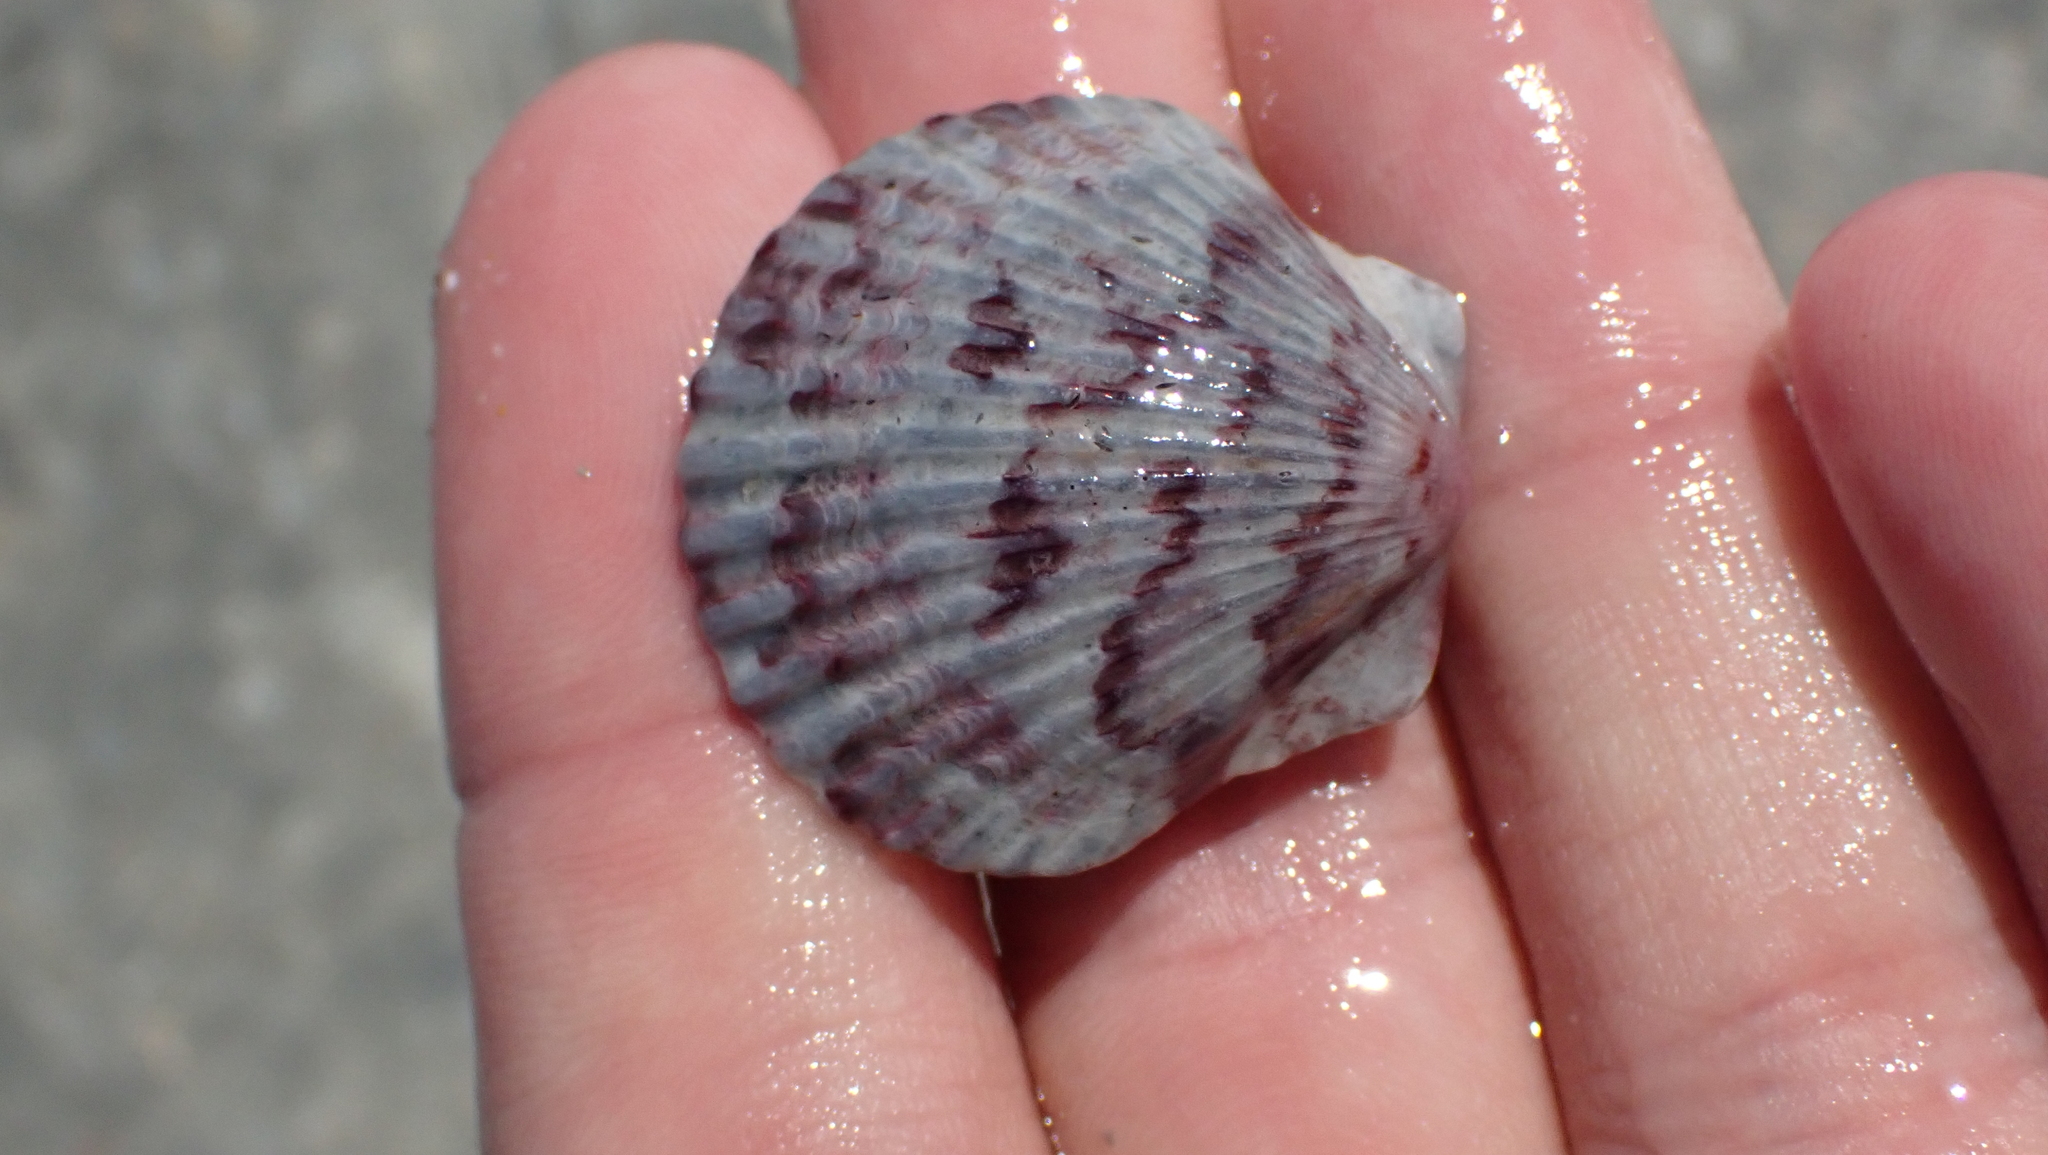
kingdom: Animalia
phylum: Mollusca
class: Bivalvia
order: Pectinida
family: Pectinidae
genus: Argopecten
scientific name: Argopecten gibbus
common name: Atlantic calico scallop
